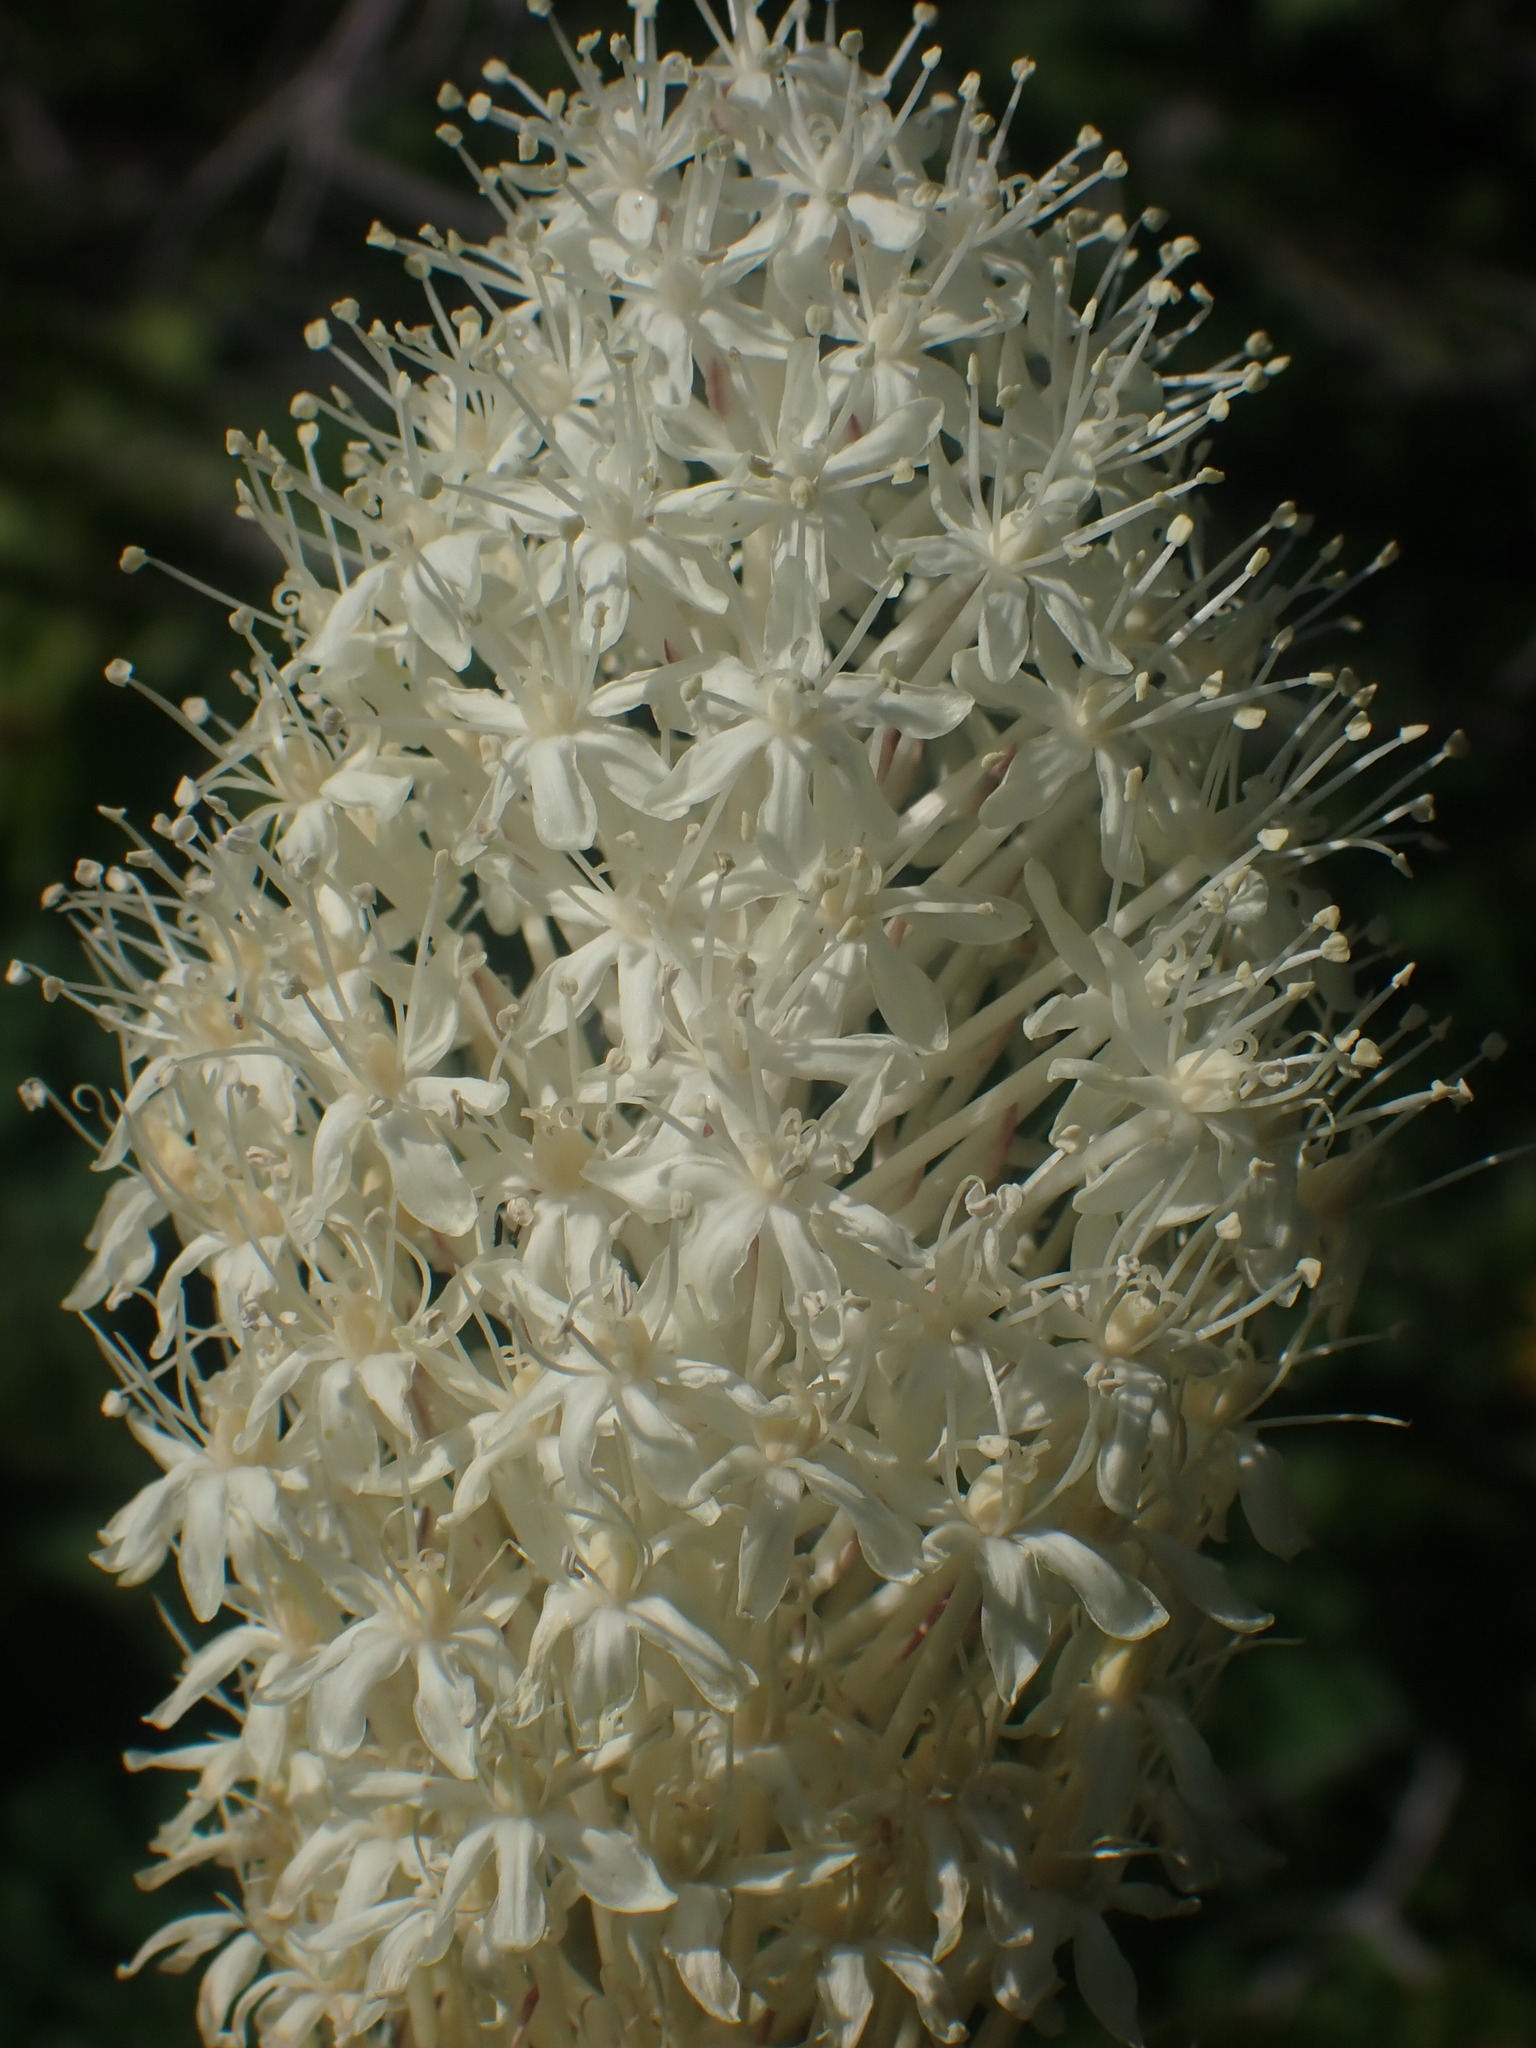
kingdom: Plantae
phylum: Tracheophyta
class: Liliopsida
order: Liliales
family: Melanthiaceae
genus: Xerophyllum
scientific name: Xerophyllum tenax
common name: Bear-grass
